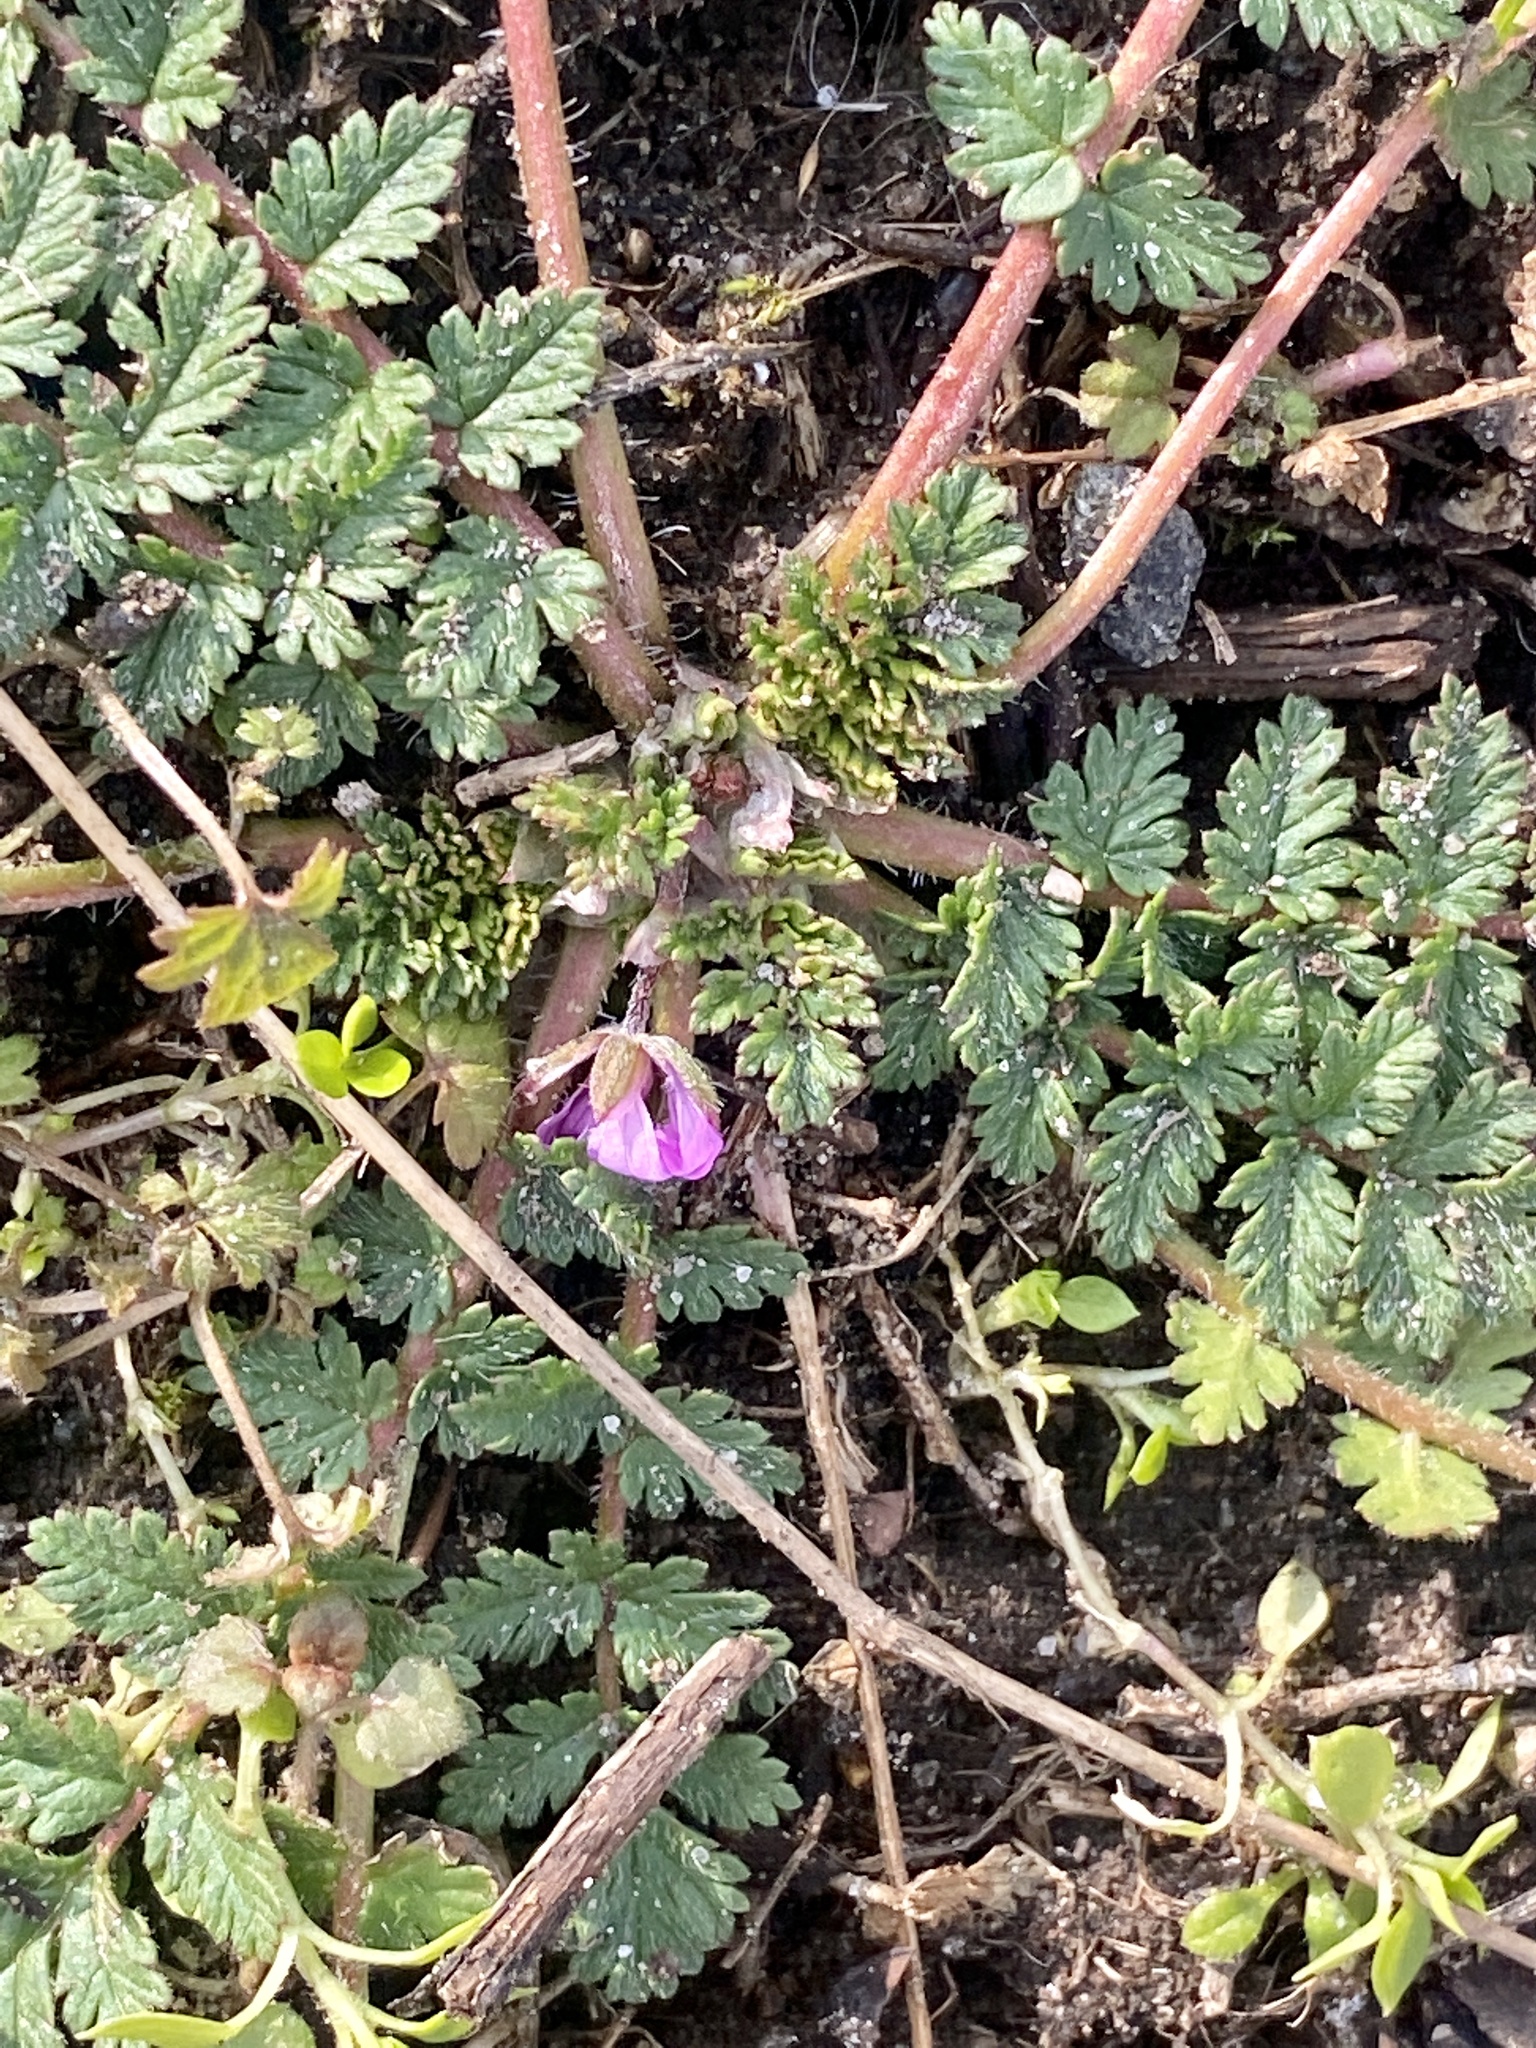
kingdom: Plantae
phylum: Tracheophyta
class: Magnoliopsida
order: Geraniales
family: Geraniaceae
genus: Erodium
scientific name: Erodium cicutarium
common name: Common stork's-bill
